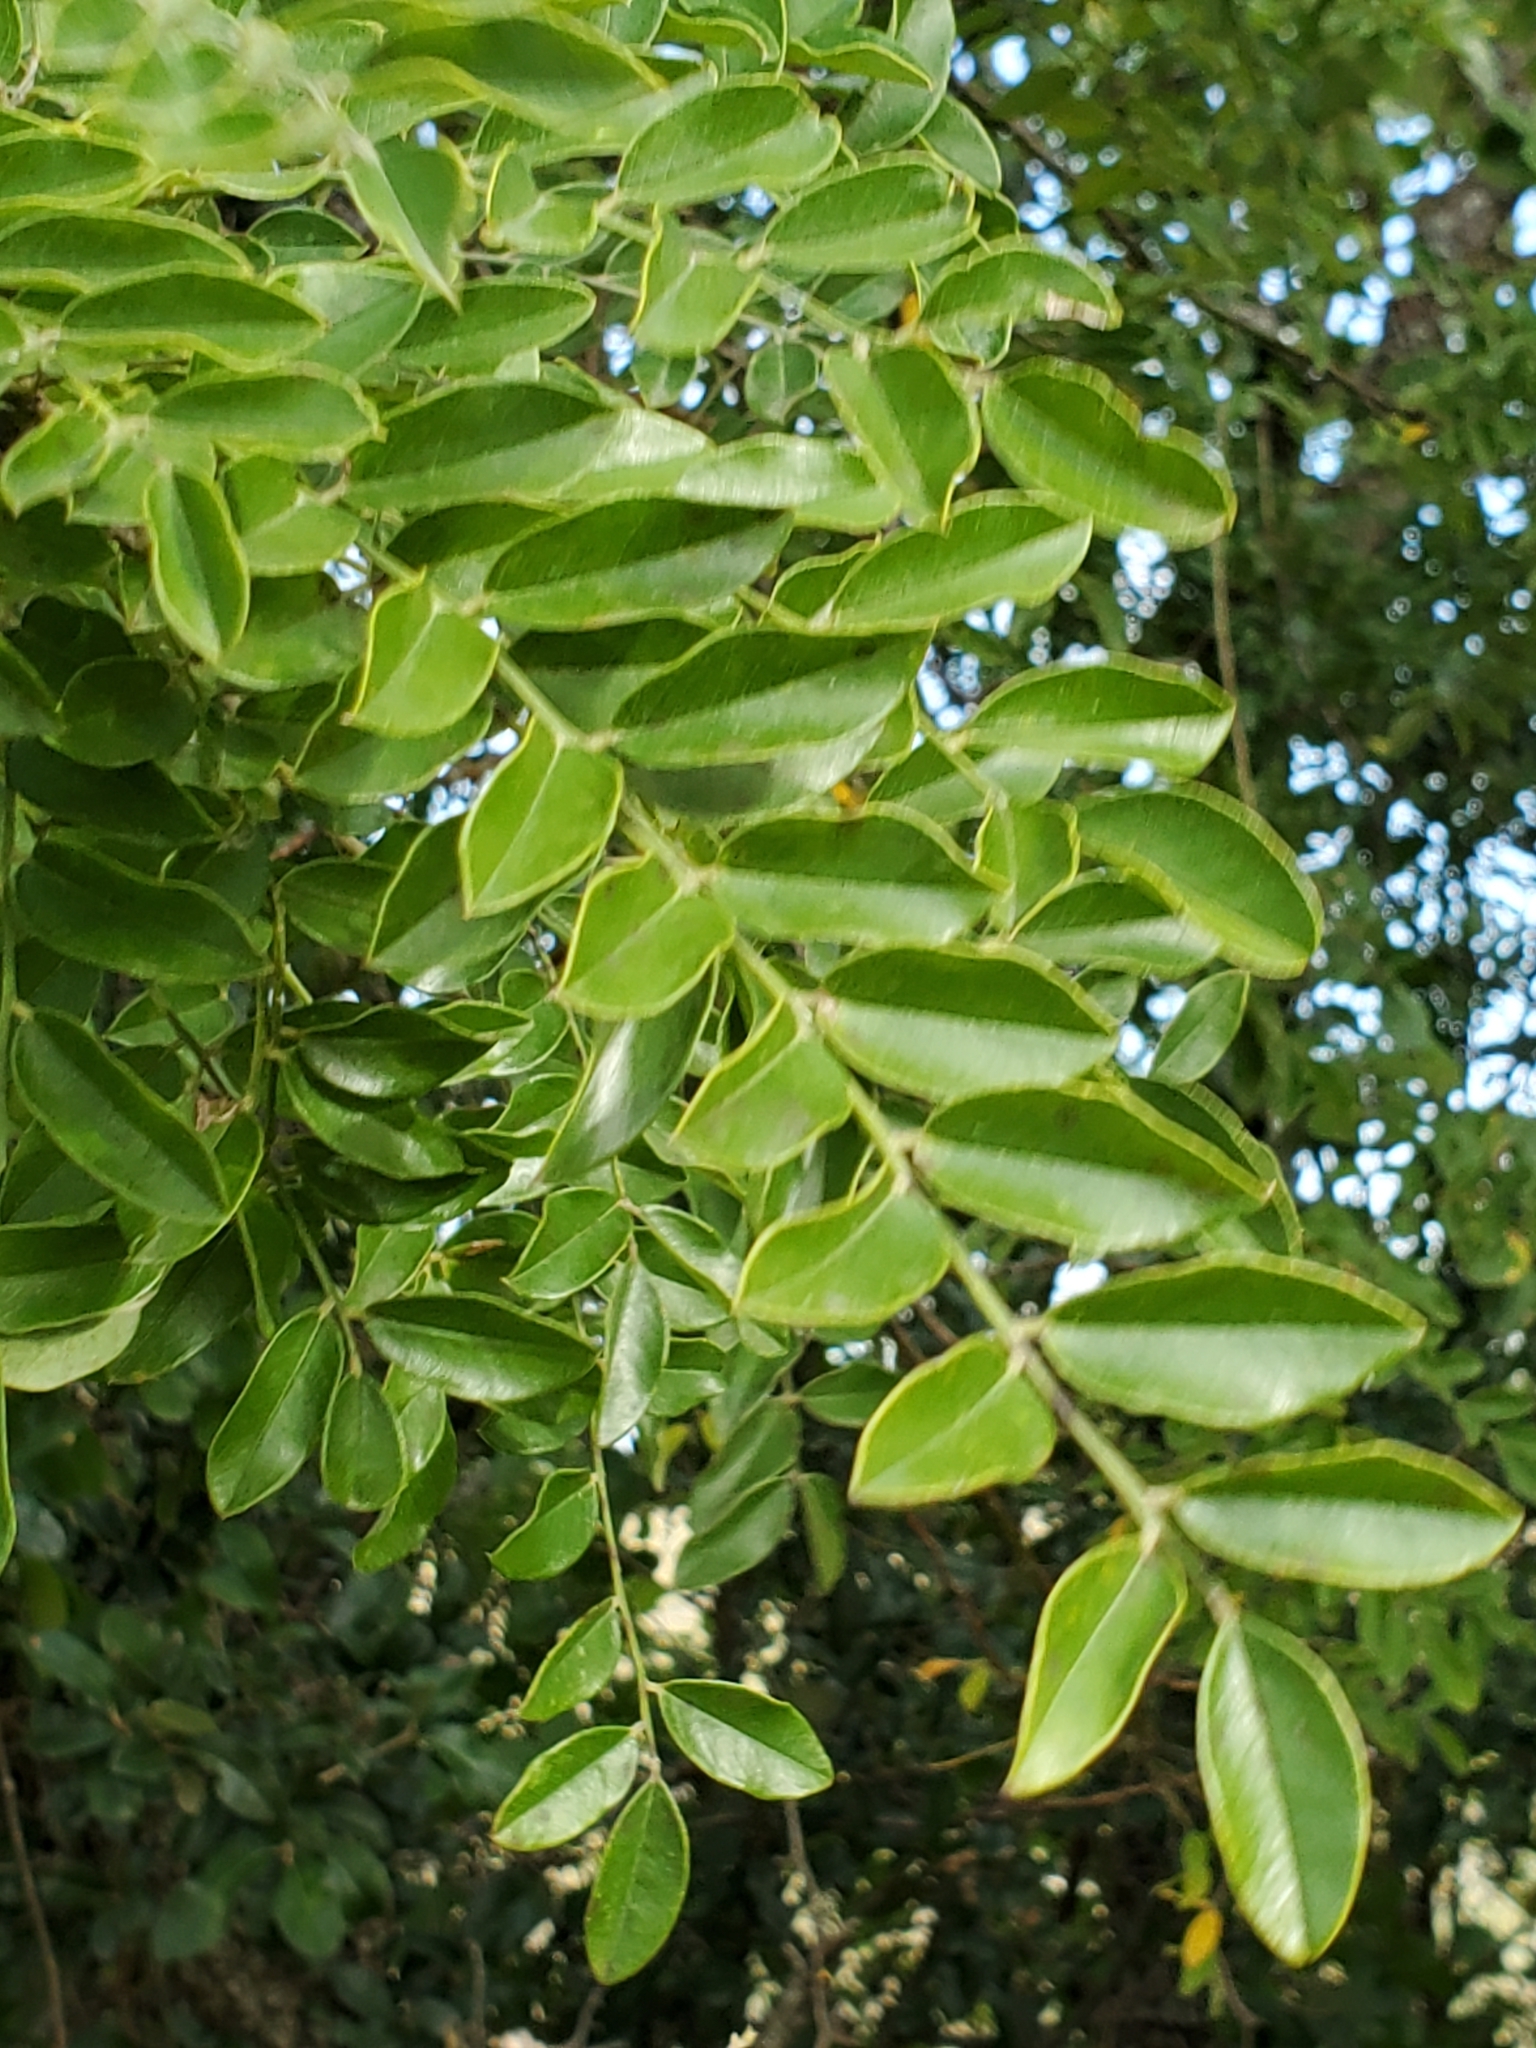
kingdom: Plantae
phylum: Tracheophyta
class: Magnoliopsida
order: Fabales
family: Fabaceae
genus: Styphnolobium
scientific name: Styphnolobium affine
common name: Texas sophora
